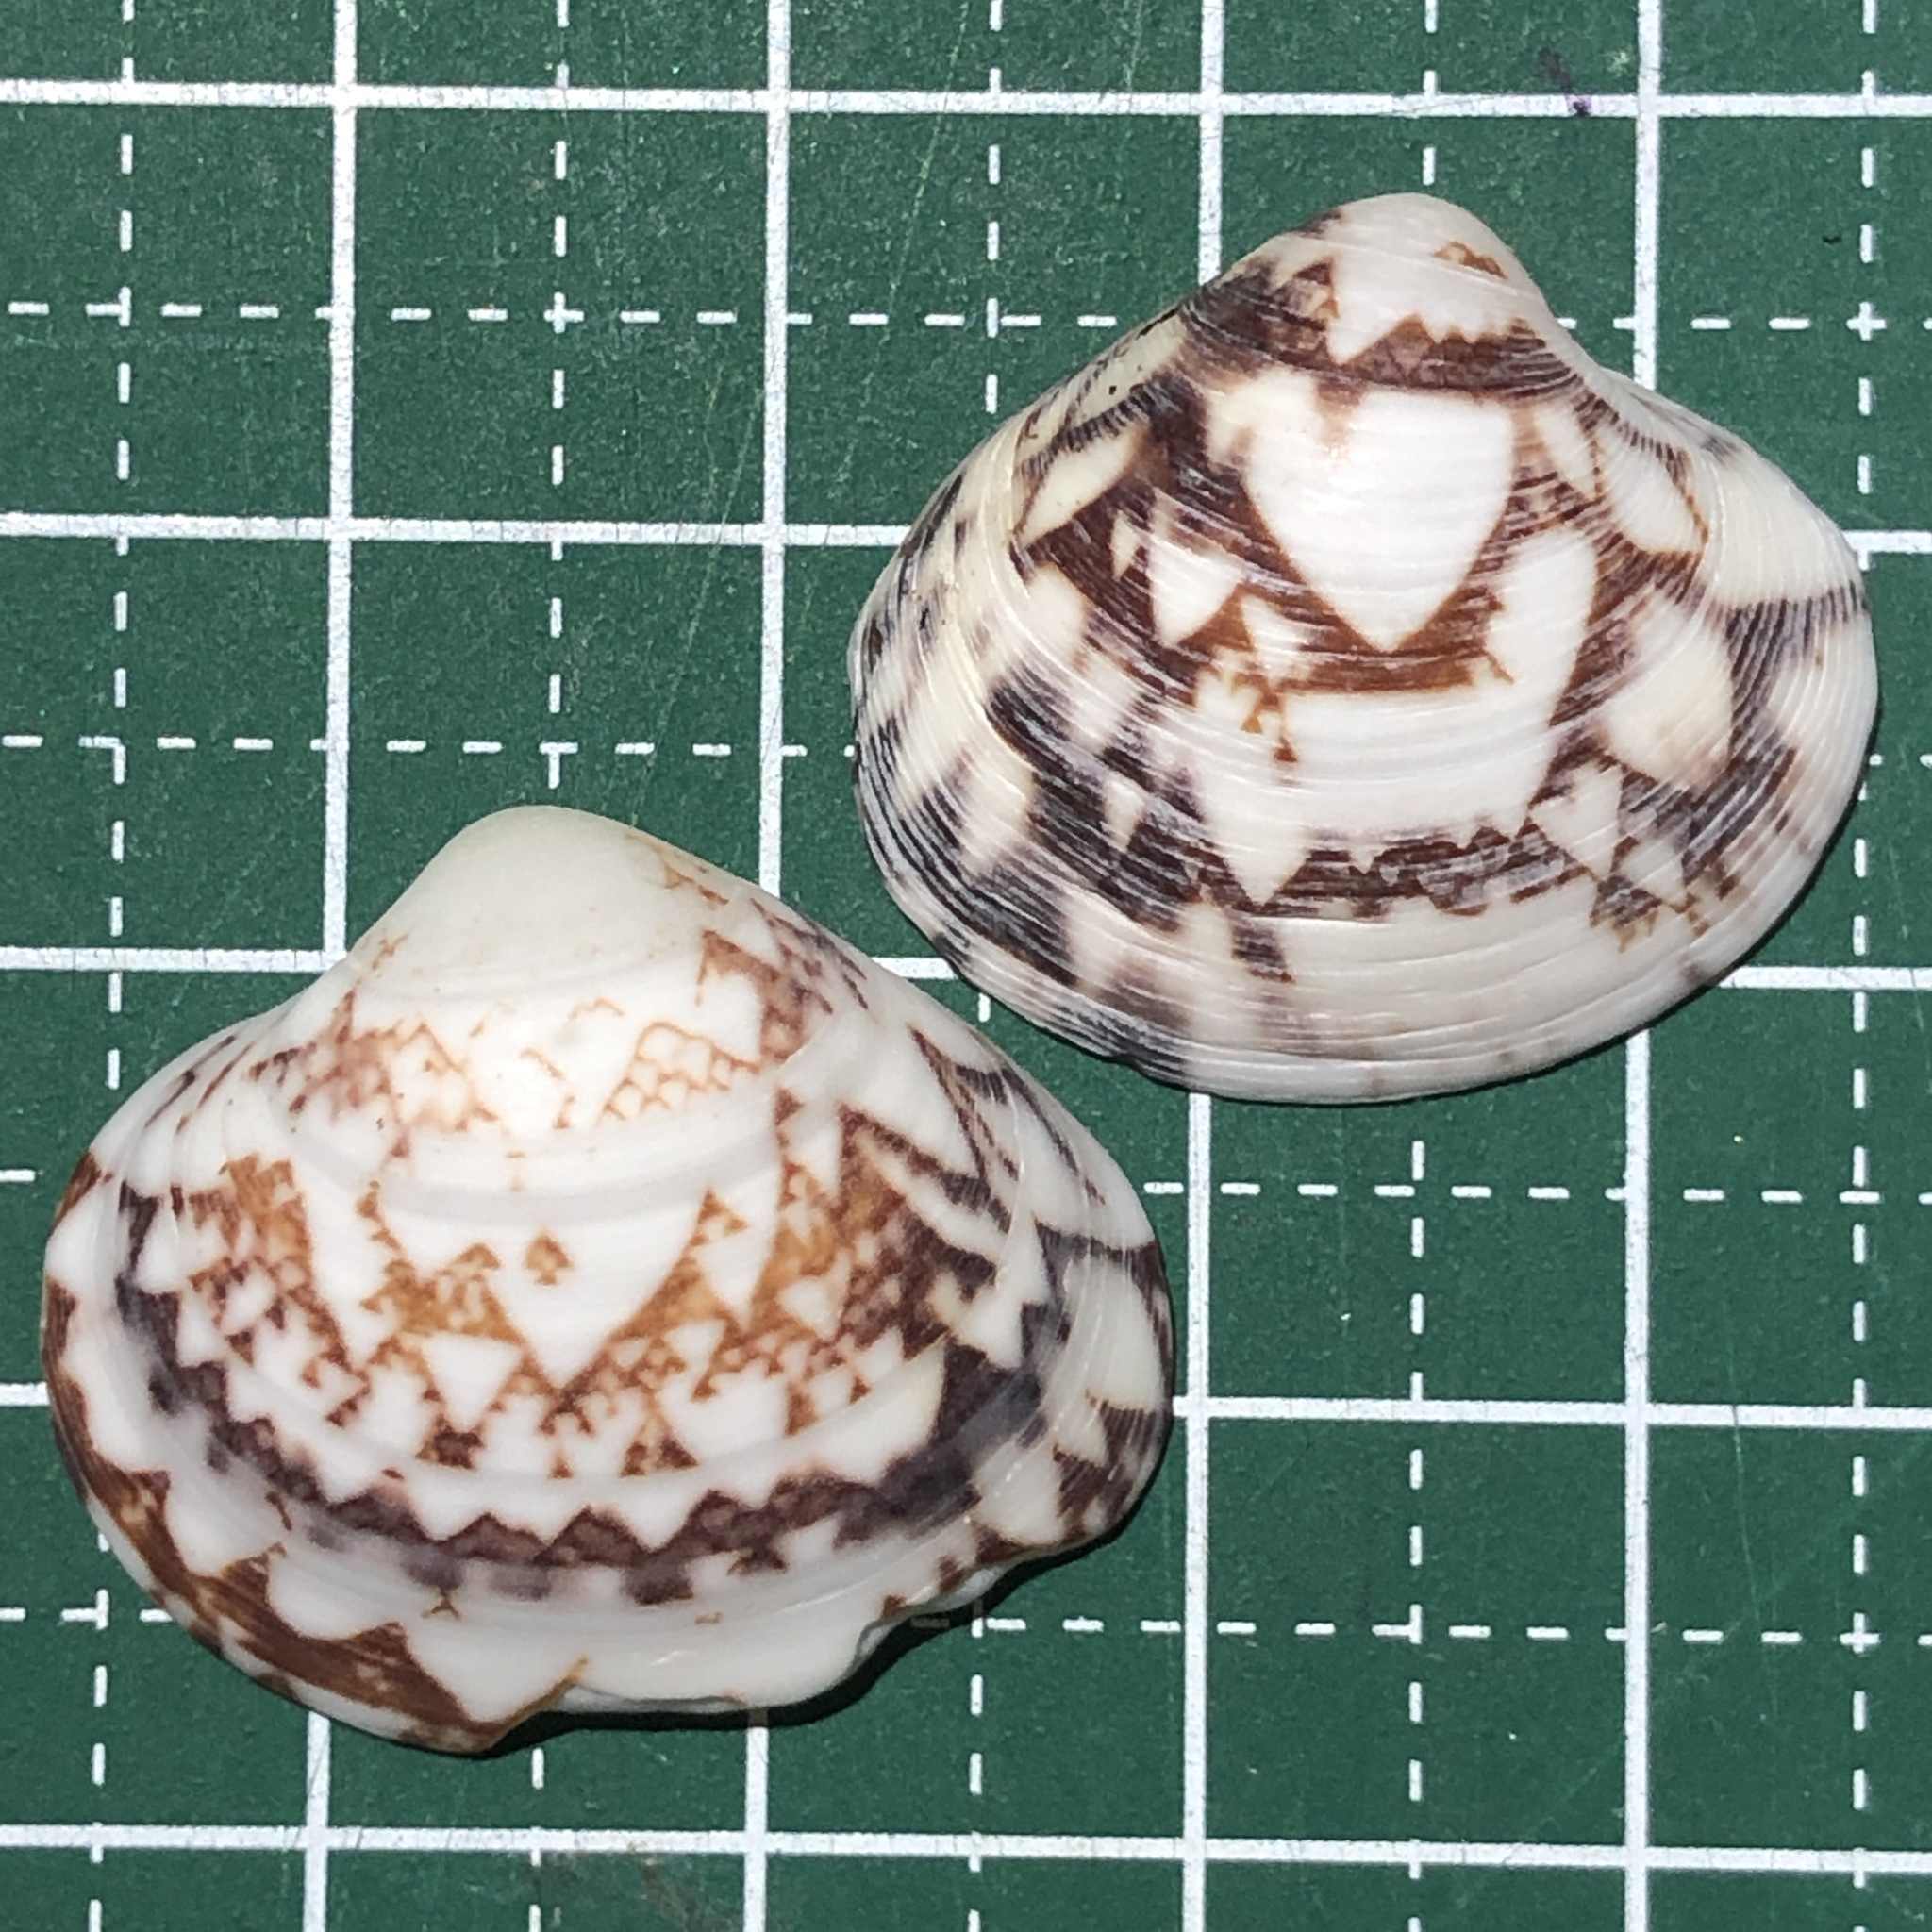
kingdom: Animalia
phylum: Mollusca
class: Bivalvia
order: Venerida
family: Veneridae
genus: Lioconcha
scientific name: Lioconcha fastigiata
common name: Clam
